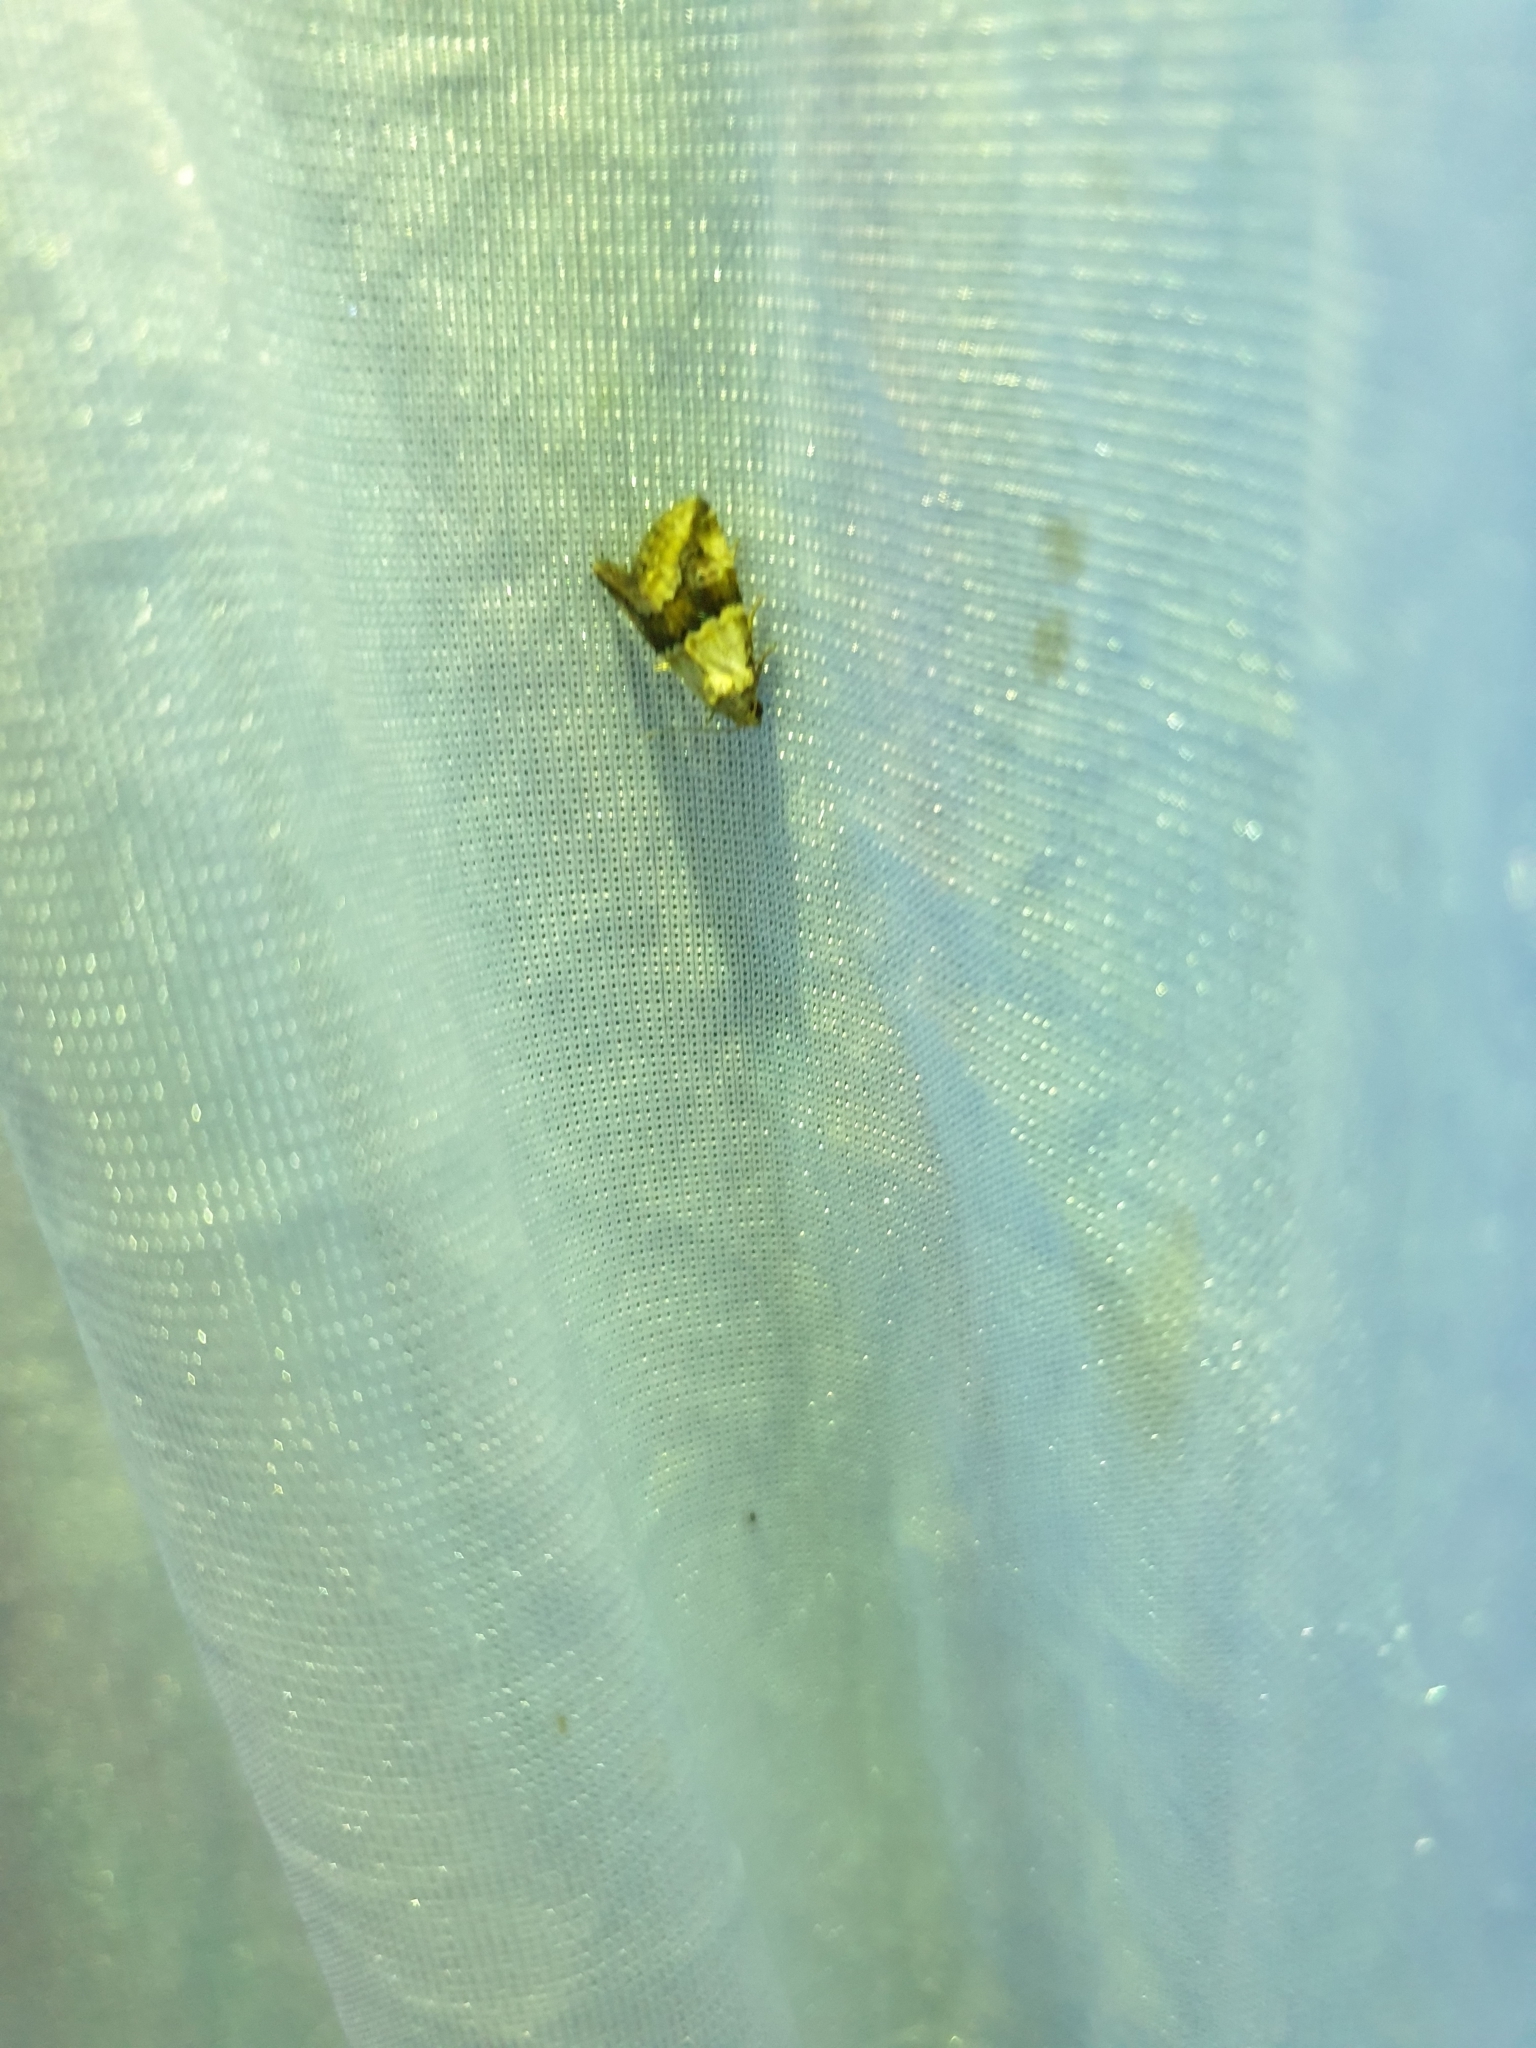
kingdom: Animalia
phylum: Arthropoda
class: Insecta
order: Lepidoptera
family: Noctuidae
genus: Maliattha
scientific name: Maliattha amorpha
